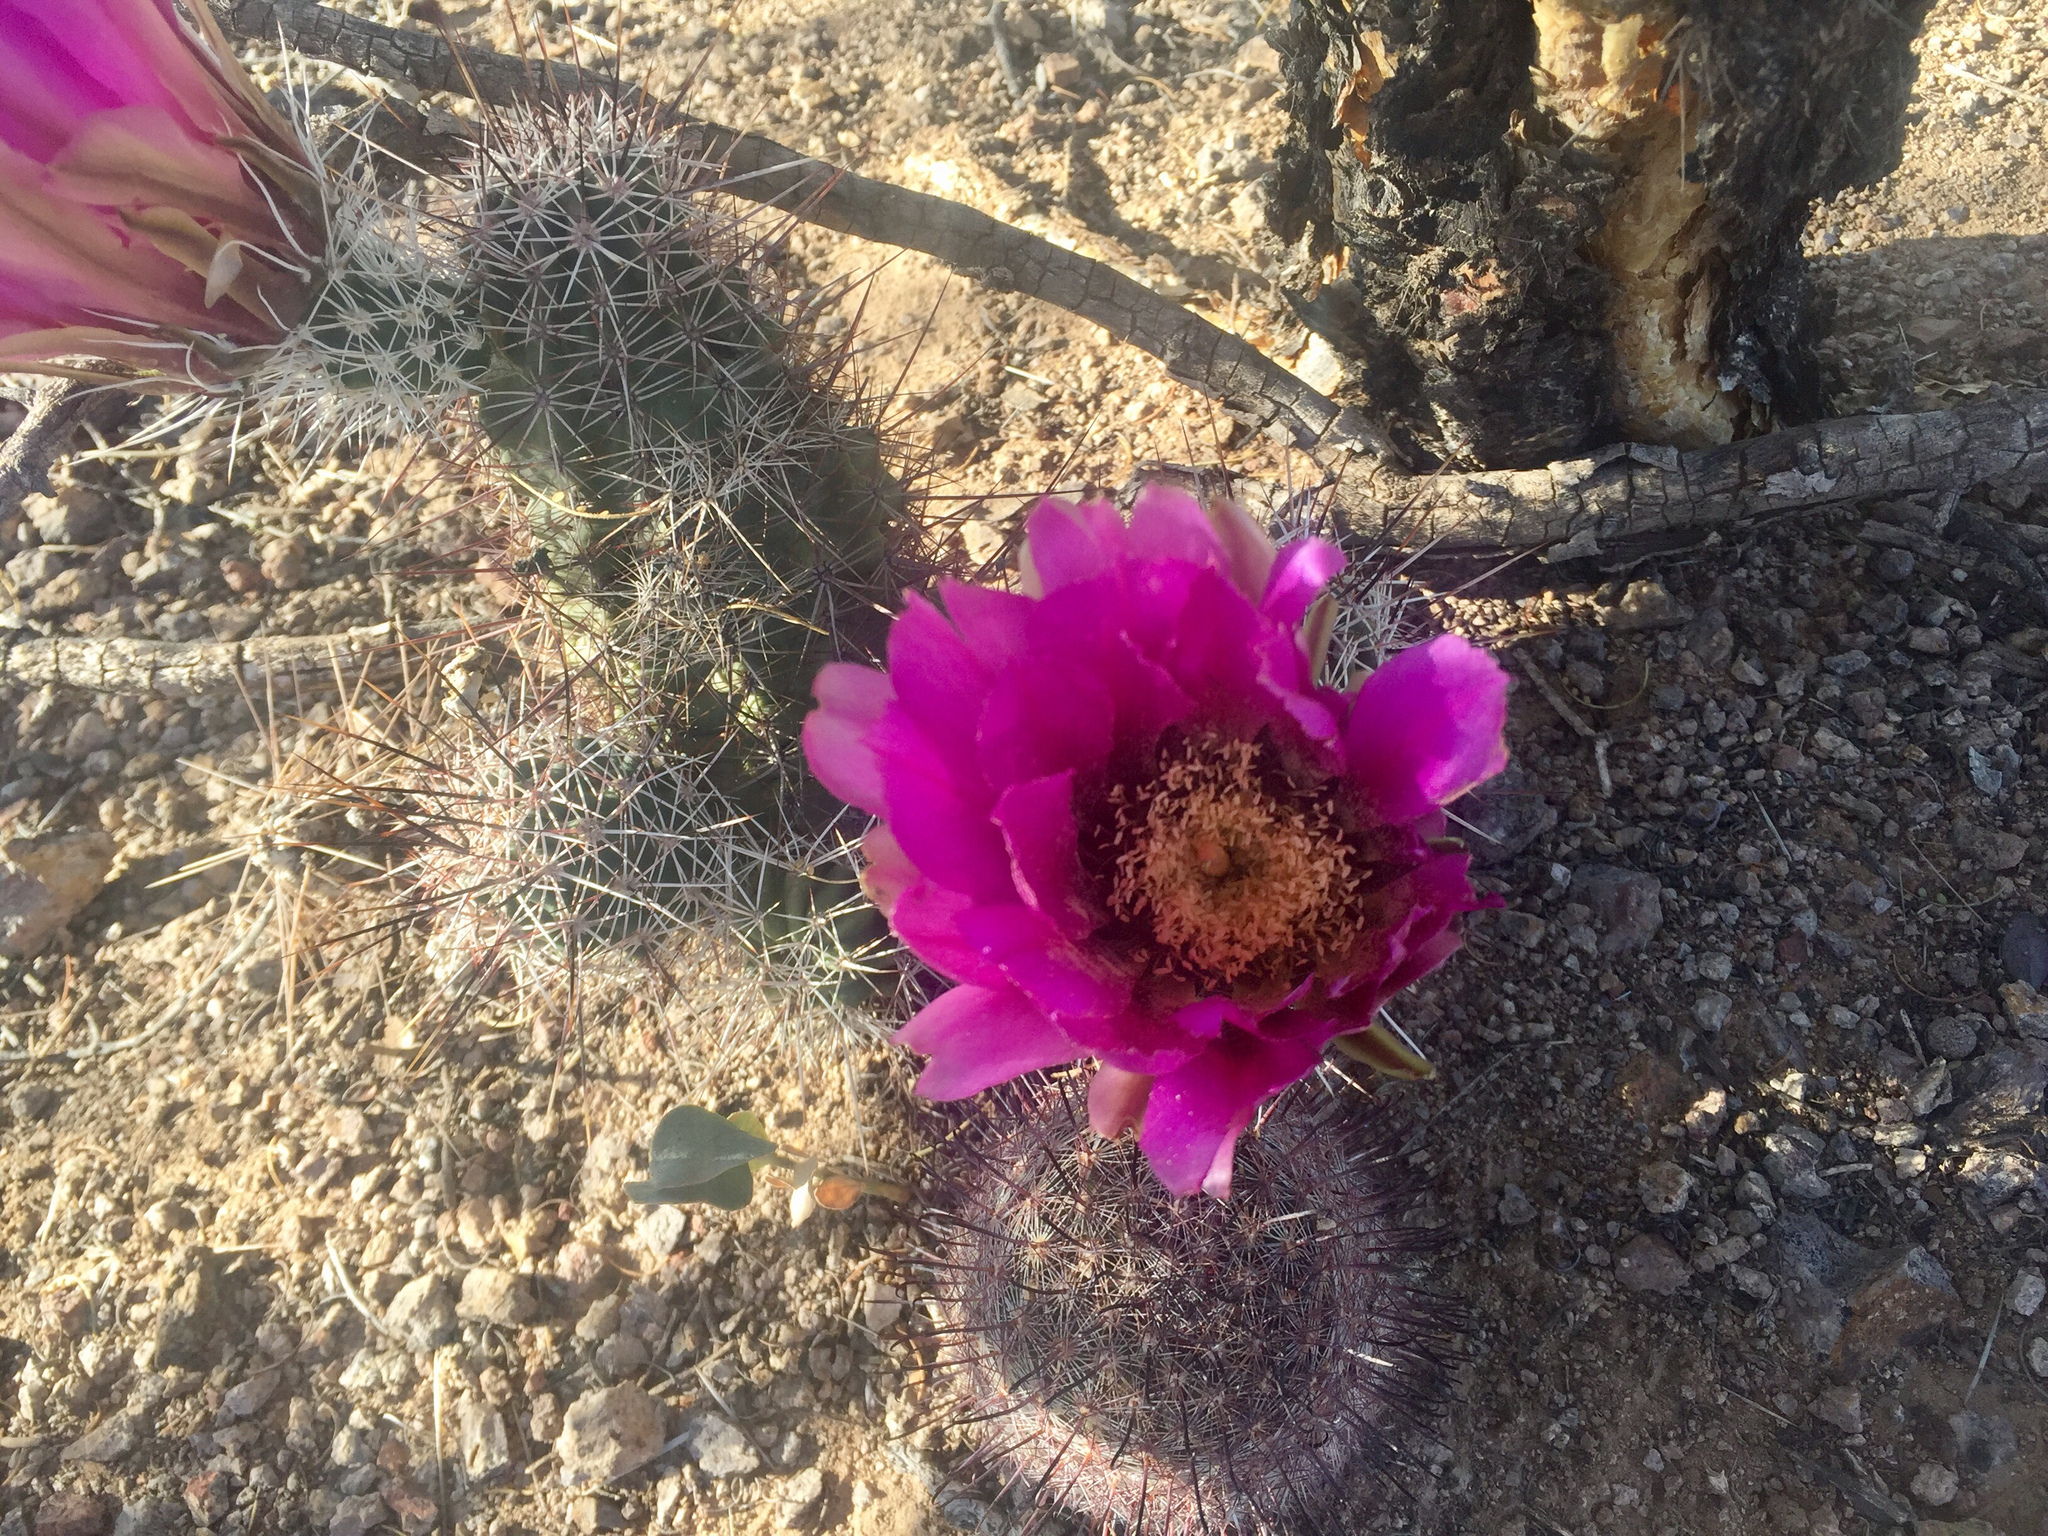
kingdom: Plantae
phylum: Tracheophyta
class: Magnoliopsida
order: Caryophyllales
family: Cactaceae
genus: Echinocereus
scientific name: Echinocereus fasciculatus
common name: Bundle hedgehog
